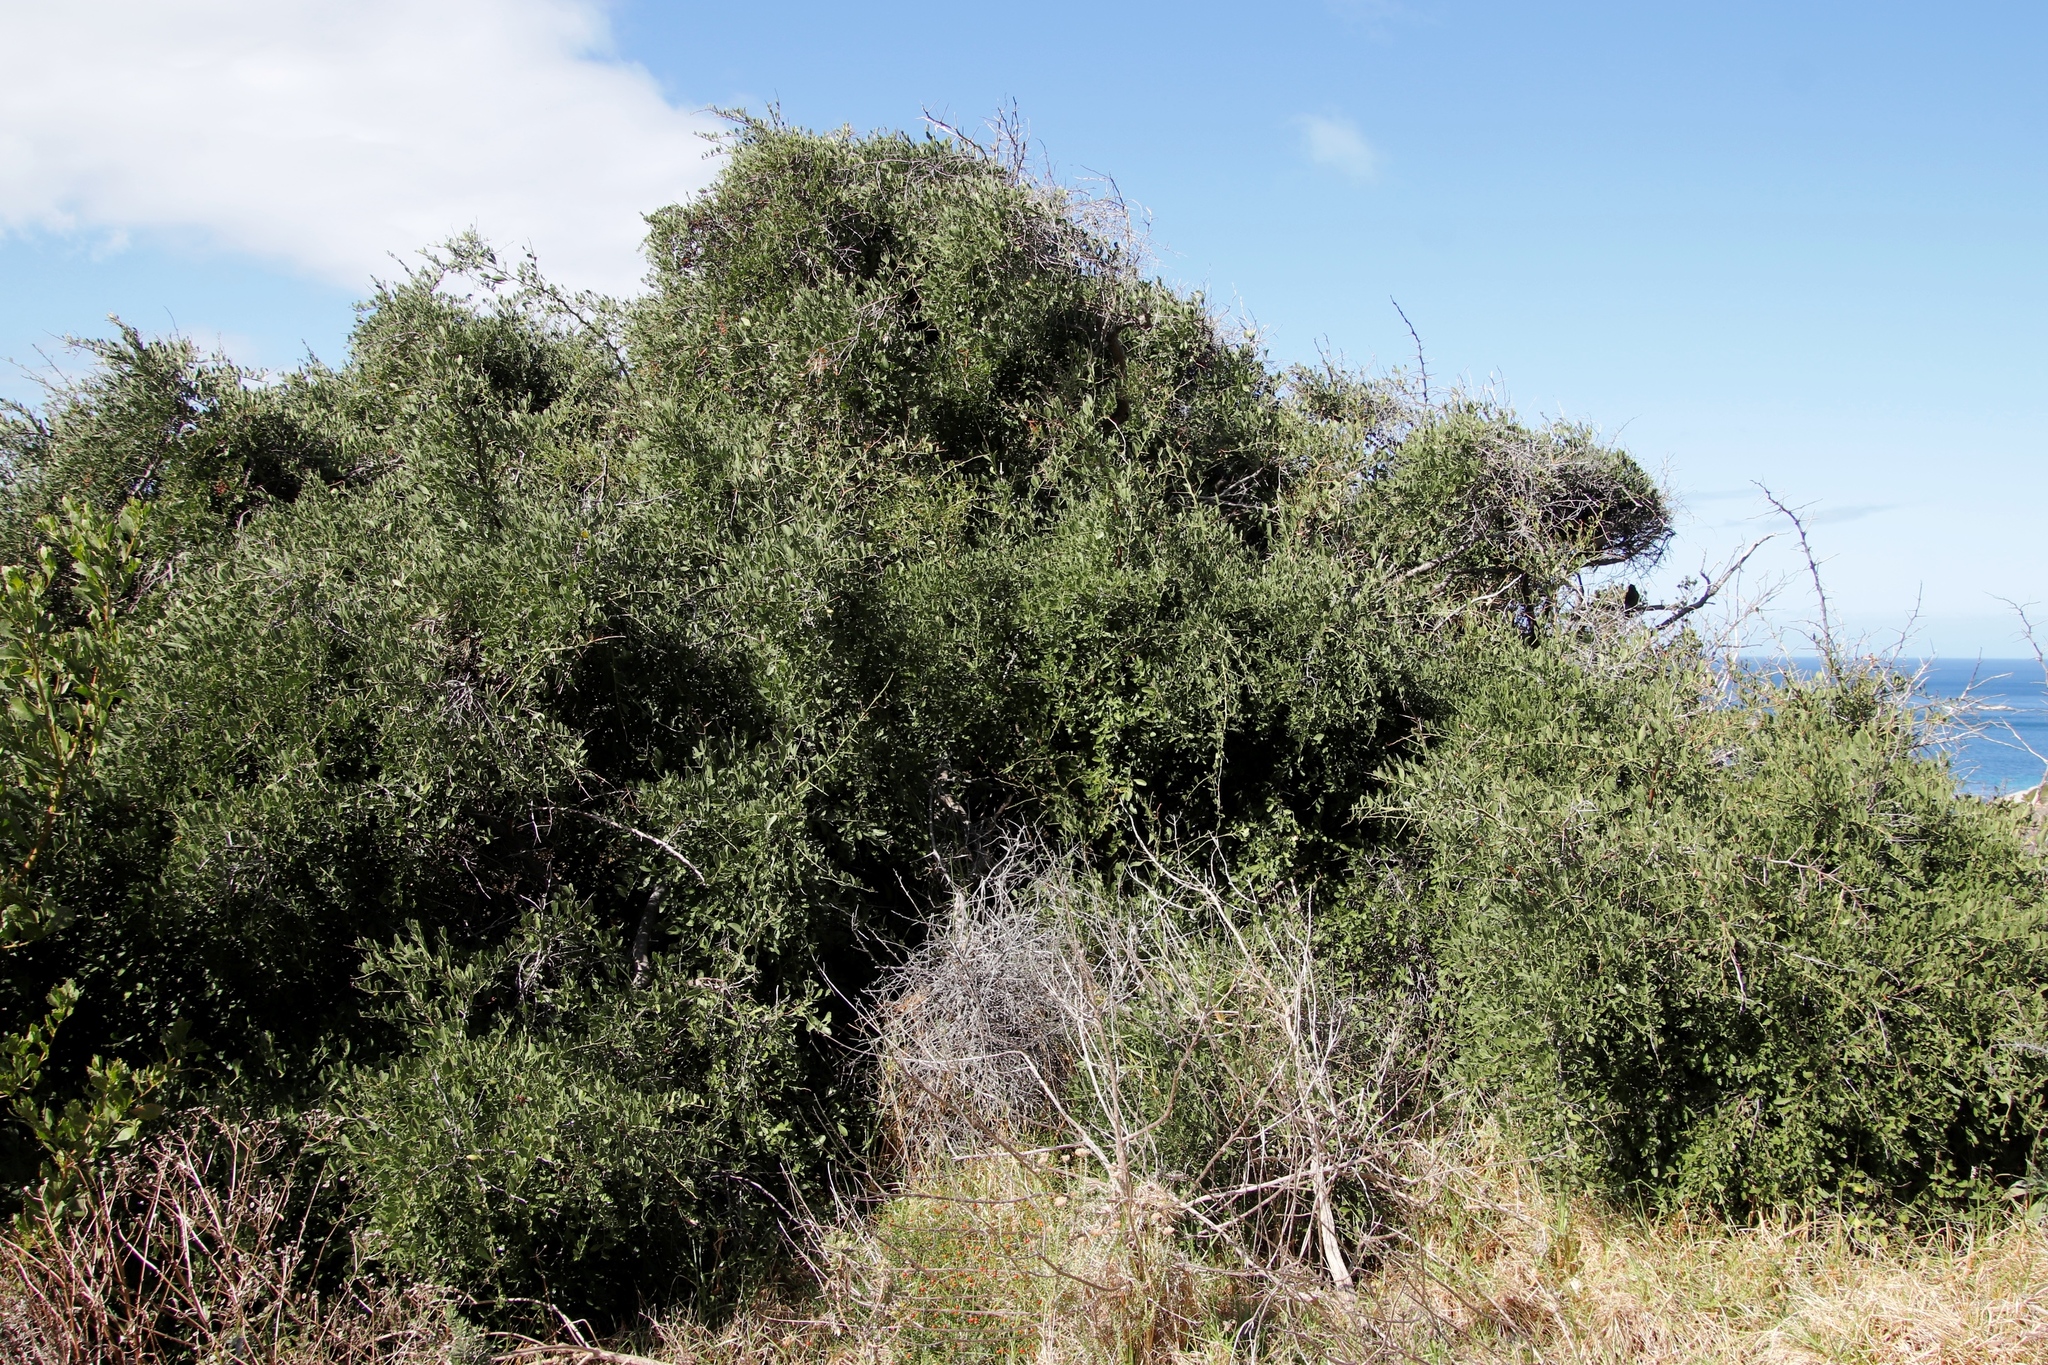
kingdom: Plantae
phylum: Tracheophyta
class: Magnoliopsida
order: Celastrales
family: Celastraceae
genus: Gymnosporia
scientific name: Gymnosporia buxifolia
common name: Common spike-thorn
